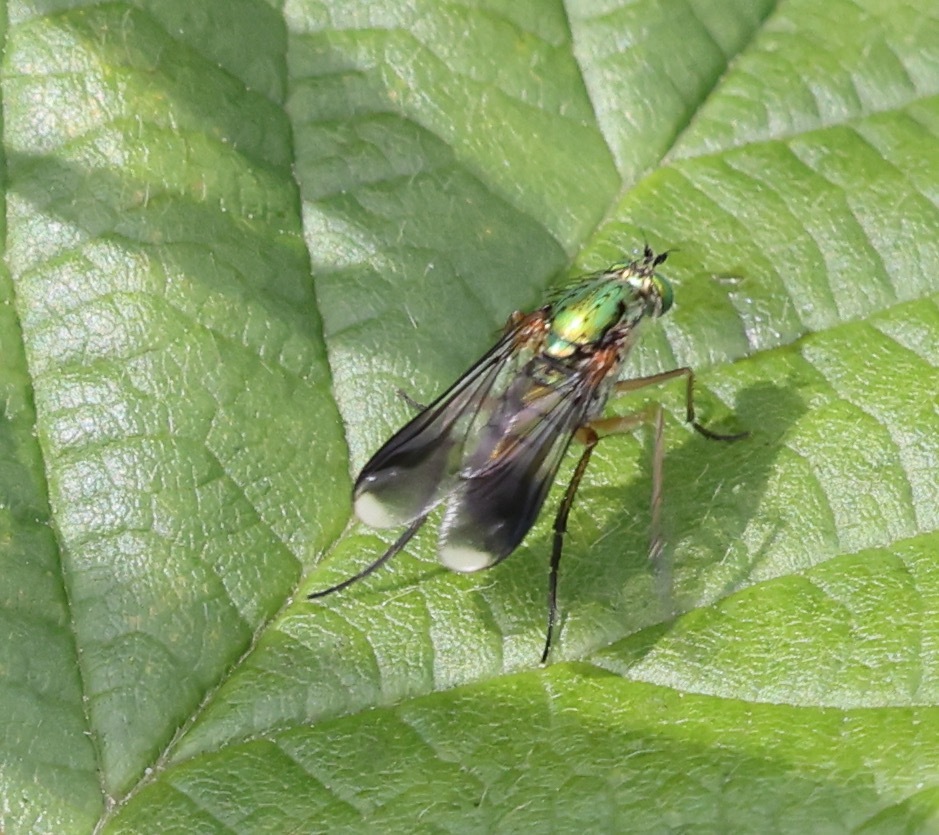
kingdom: Animalia
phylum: Arthropoda
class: Insecta
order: Diptera
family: Dolichopodidae
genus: Poecilobothrus
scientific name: Poecilobothrus nobilitatus
